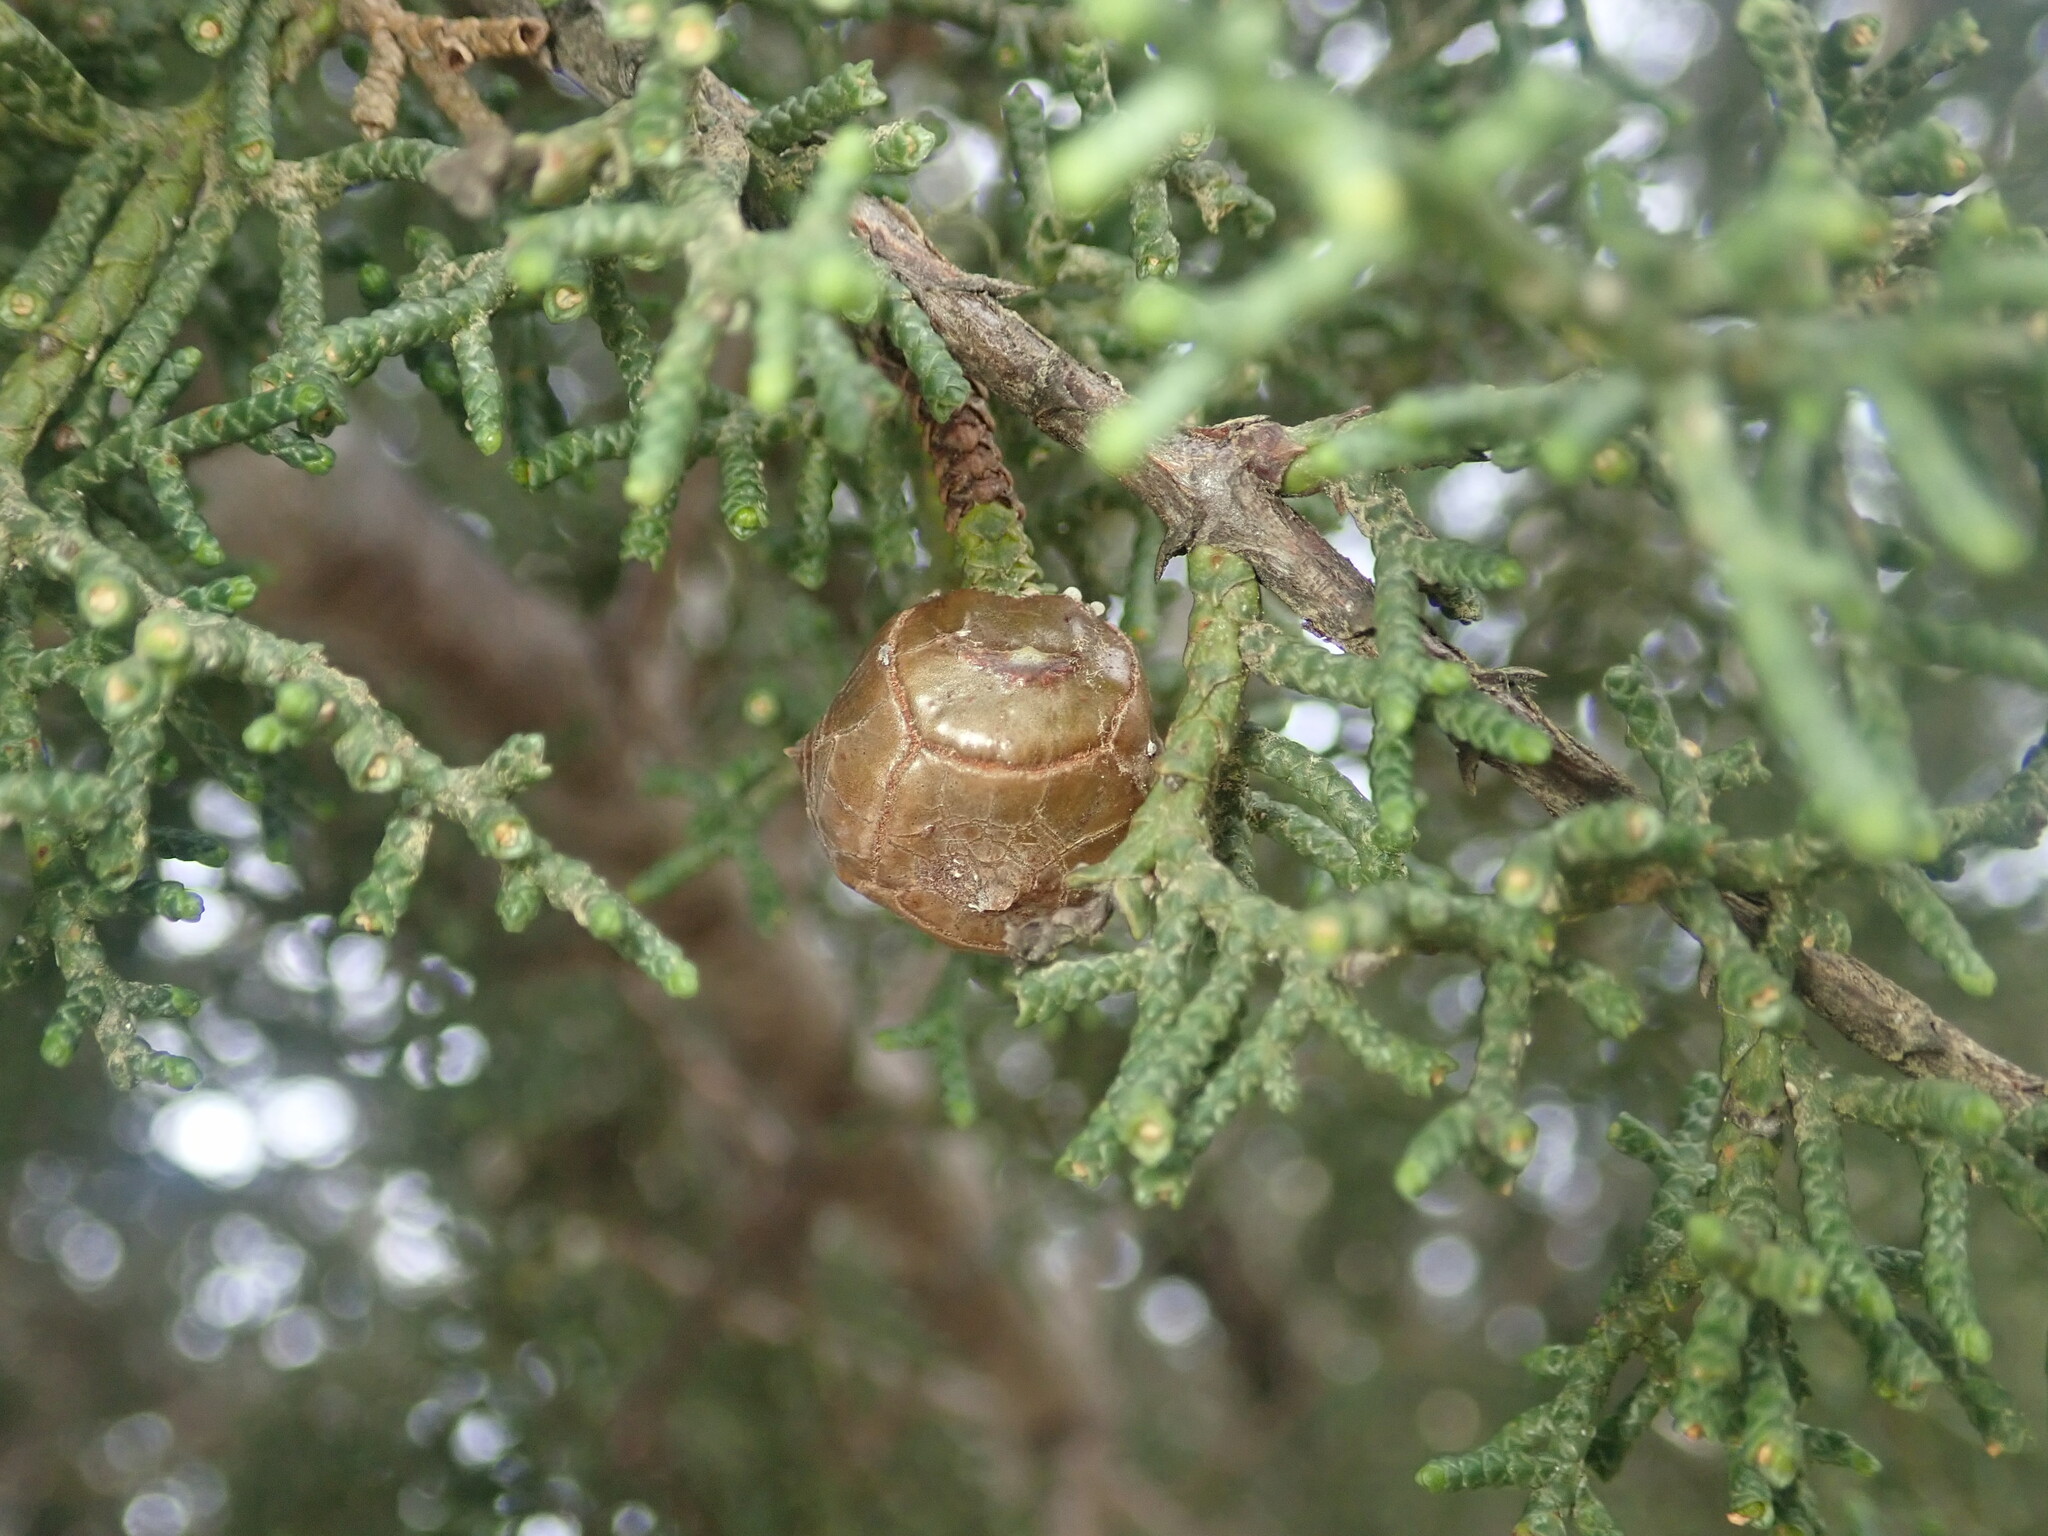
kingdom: Plantae
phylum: Tracheophyta
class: Pinopsida
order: Pinales
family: Cupressaceae
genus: Cupressus
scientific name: Cupressus goveniana
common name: Gowen cypress
